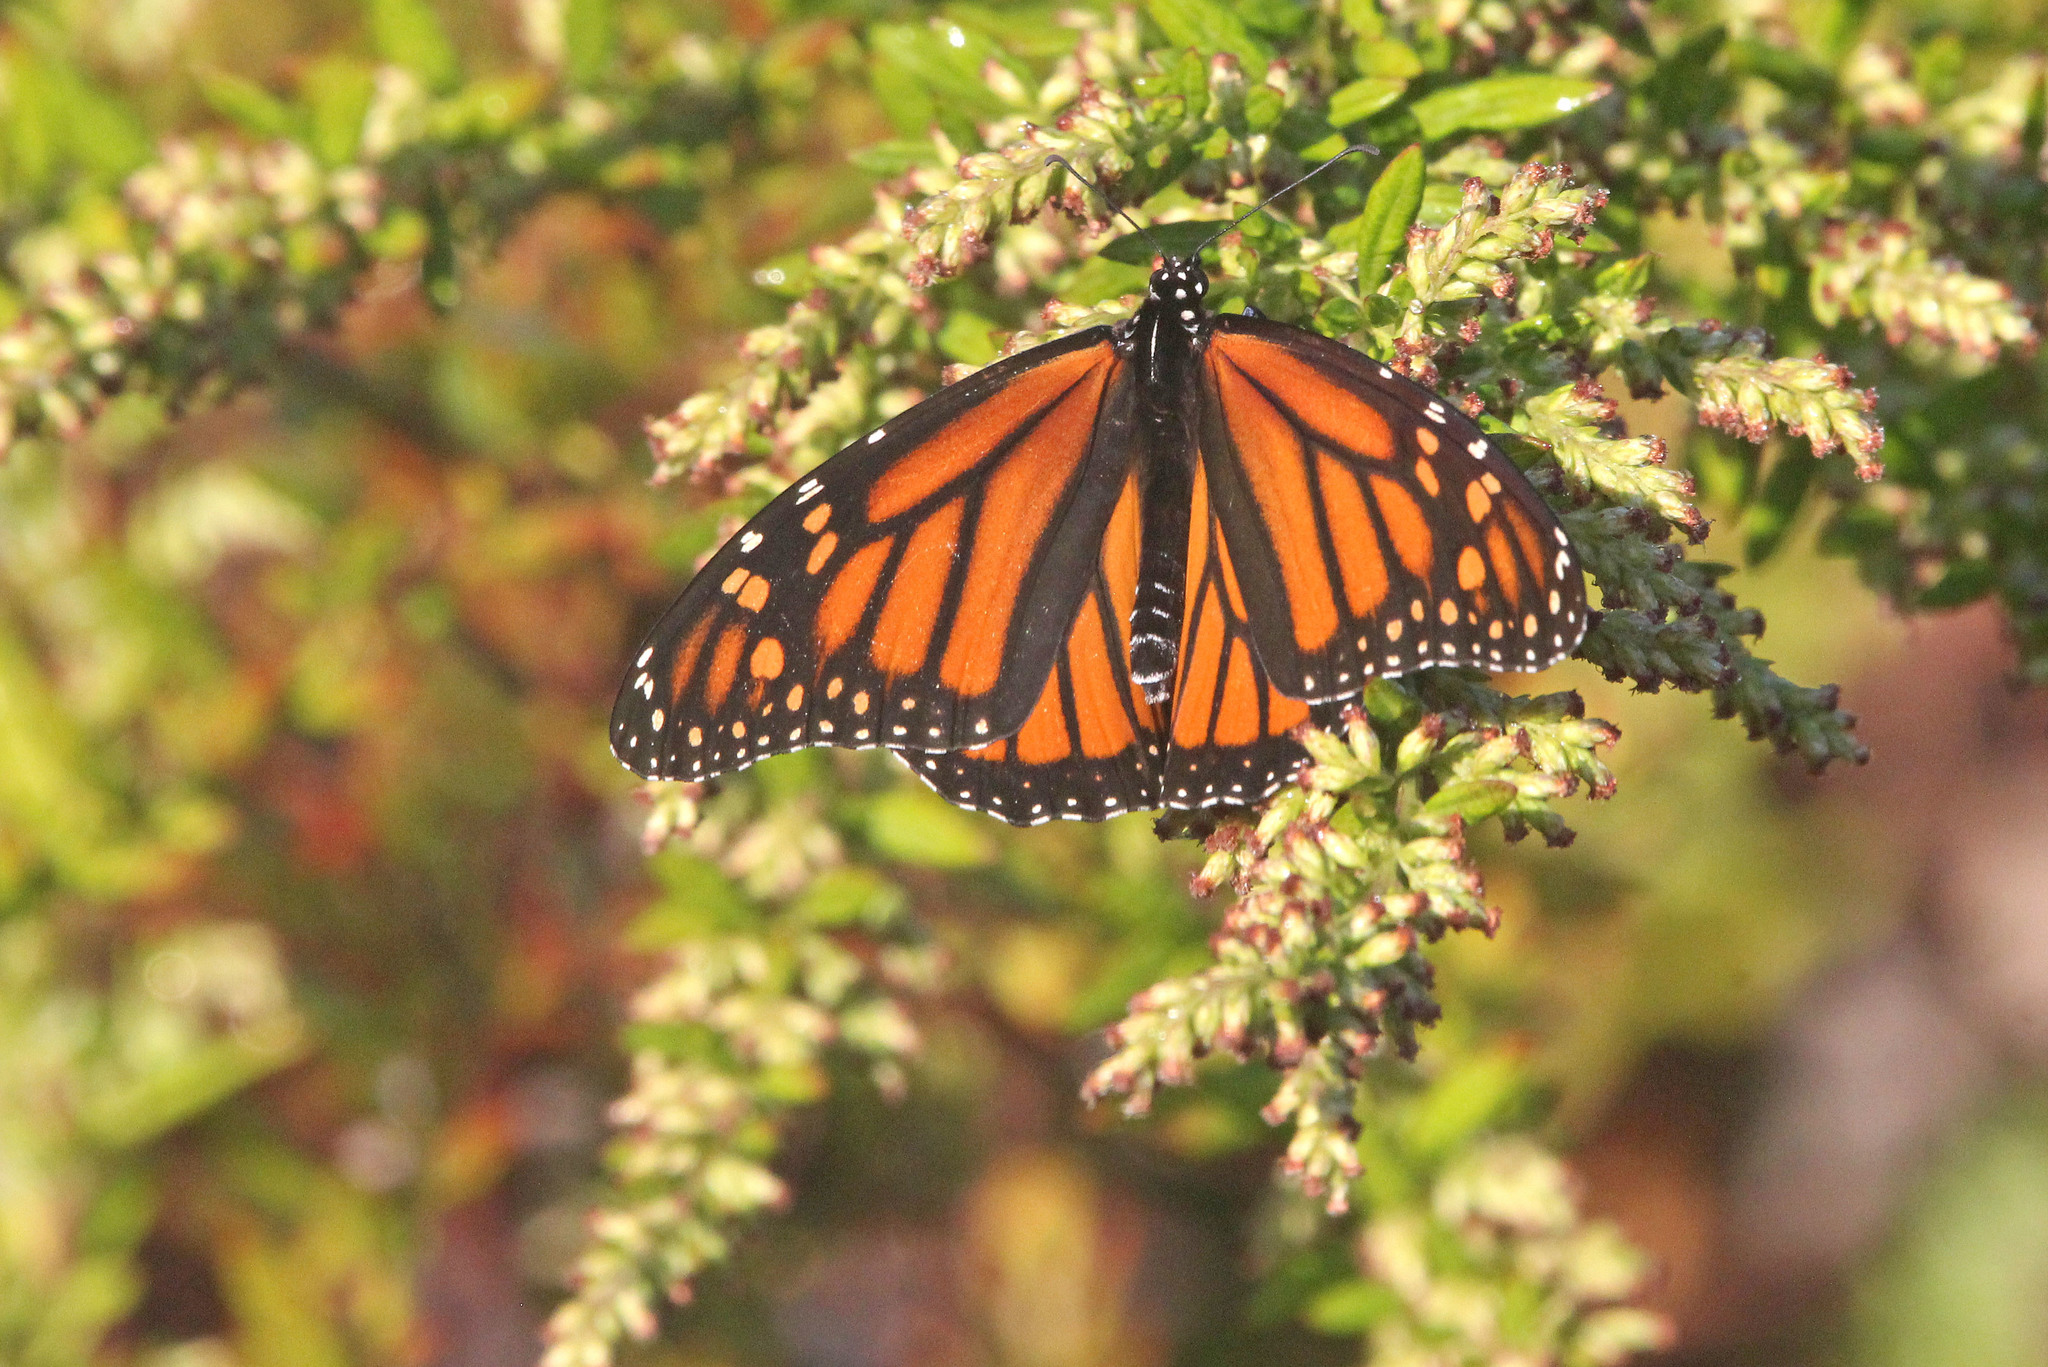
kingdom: Animalia
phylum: Arthropoda
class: Insecta
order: Lepidoptera
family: Nymphalidae
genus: Danaus
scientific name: Danaus plexippus
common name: Monarch
